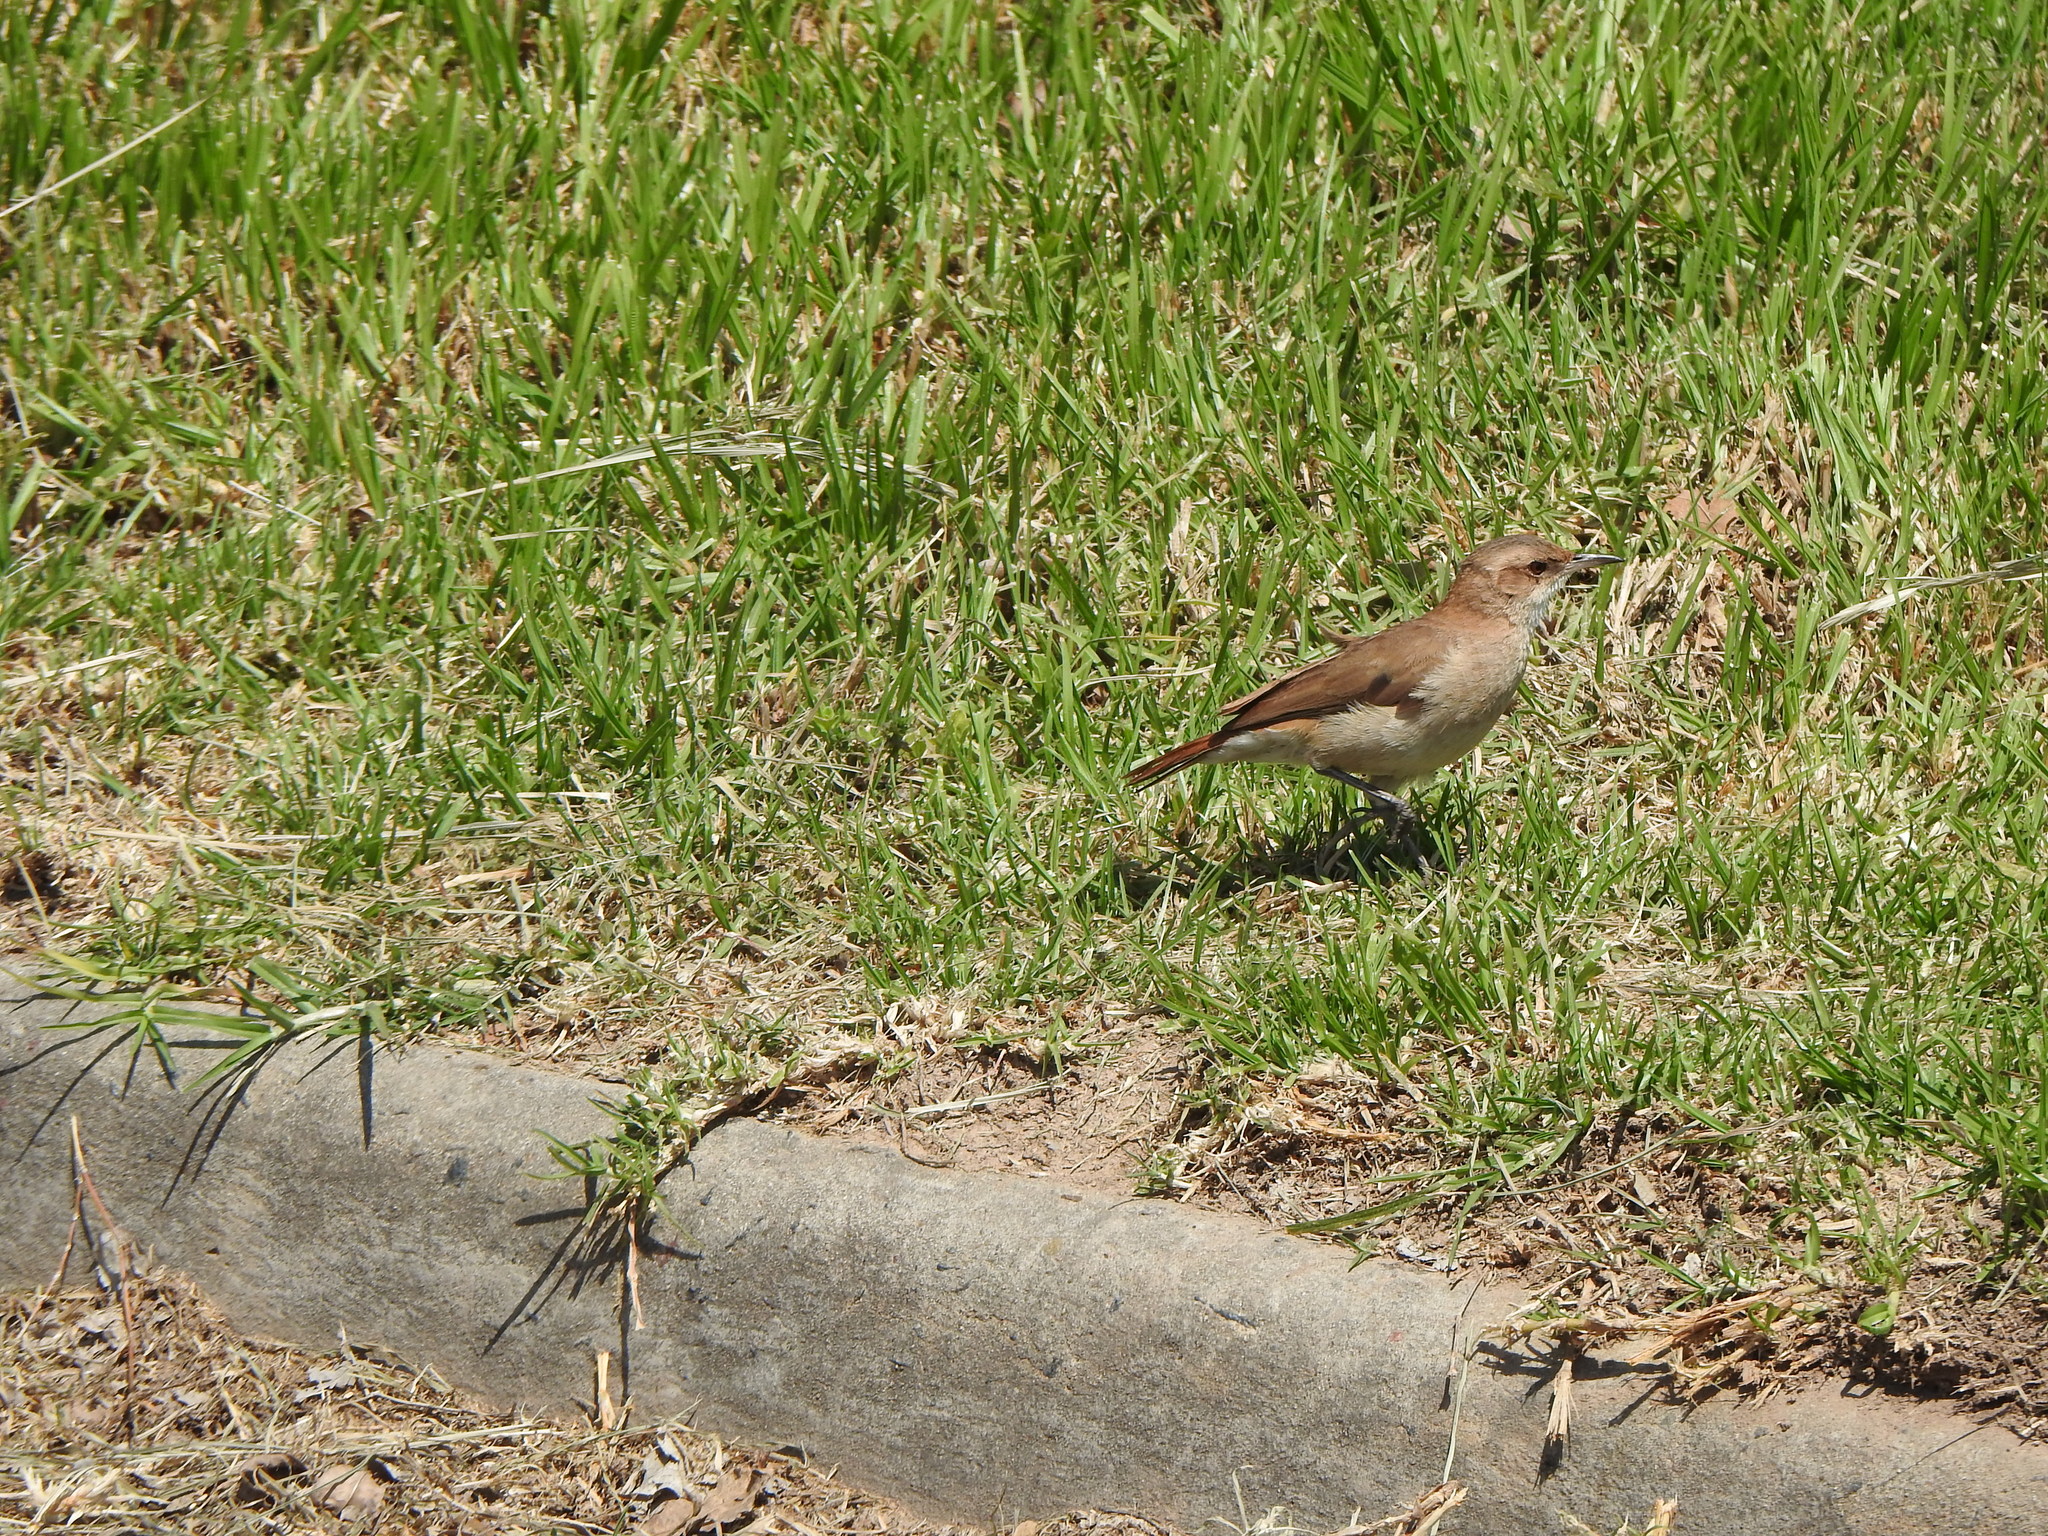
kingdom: Animalia
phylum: Chordata
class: Aves
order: Passeriformes
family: Furnariidae
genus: Furnarius
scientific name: Furnarius rufus
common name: Rufous hornero
